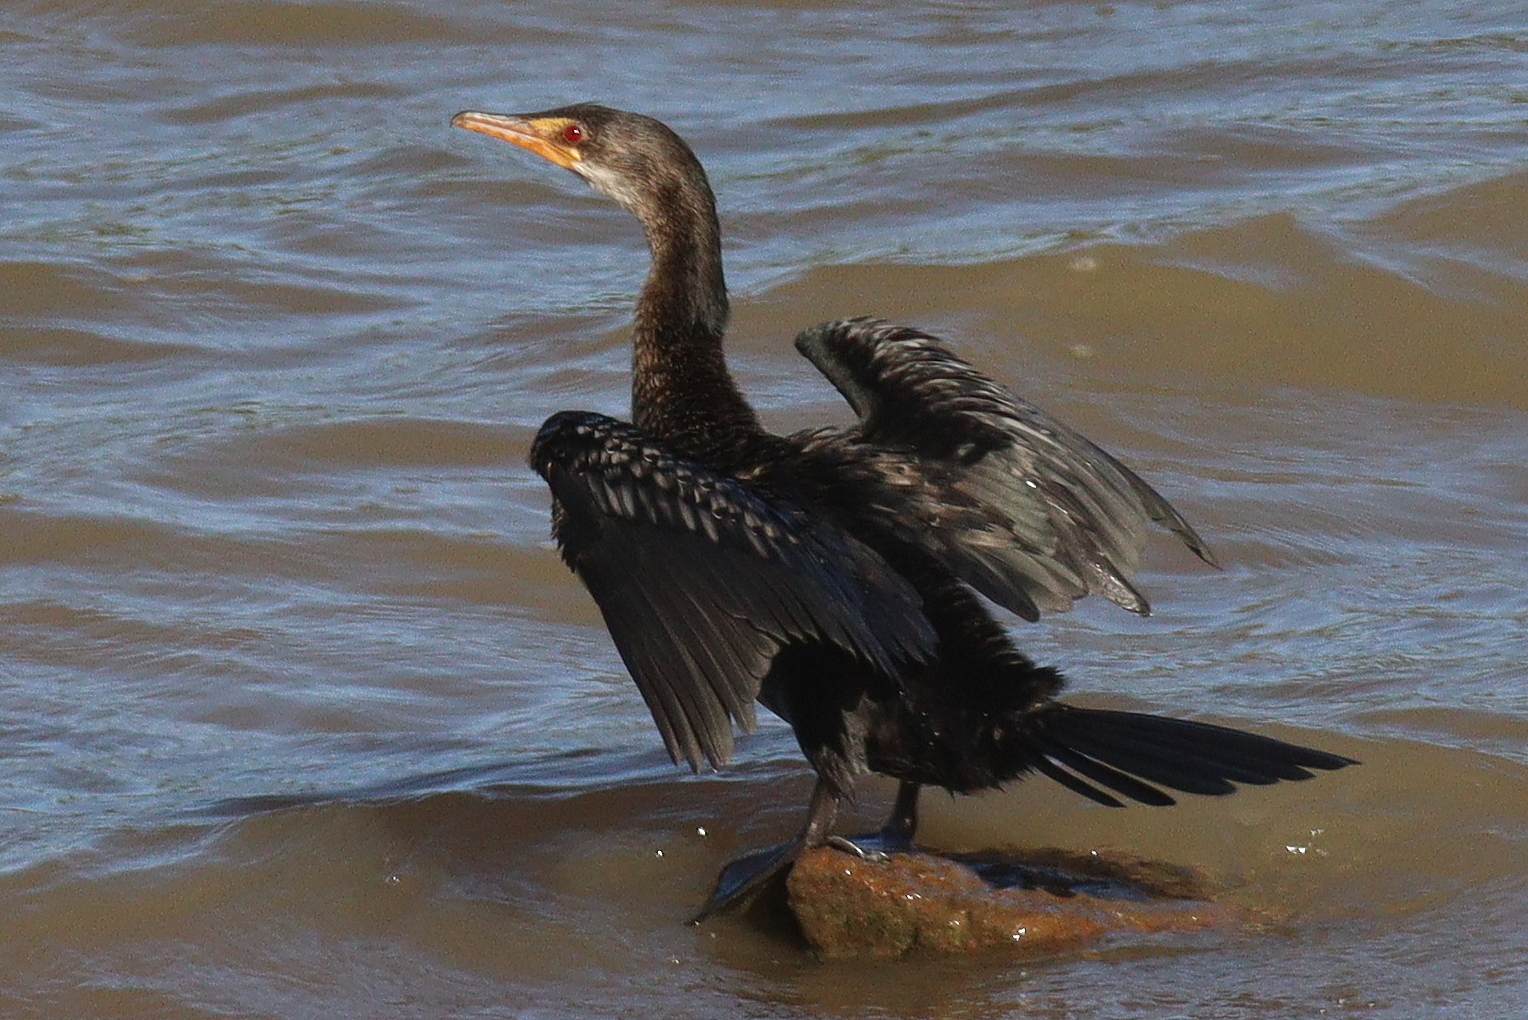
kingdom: Animalia
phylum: Chordata
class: Aves
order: Suliformes
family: Phalacrocoracidae
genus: Microcarbo
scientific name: Microcarbo africanus
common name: Long-tailed cormorant
